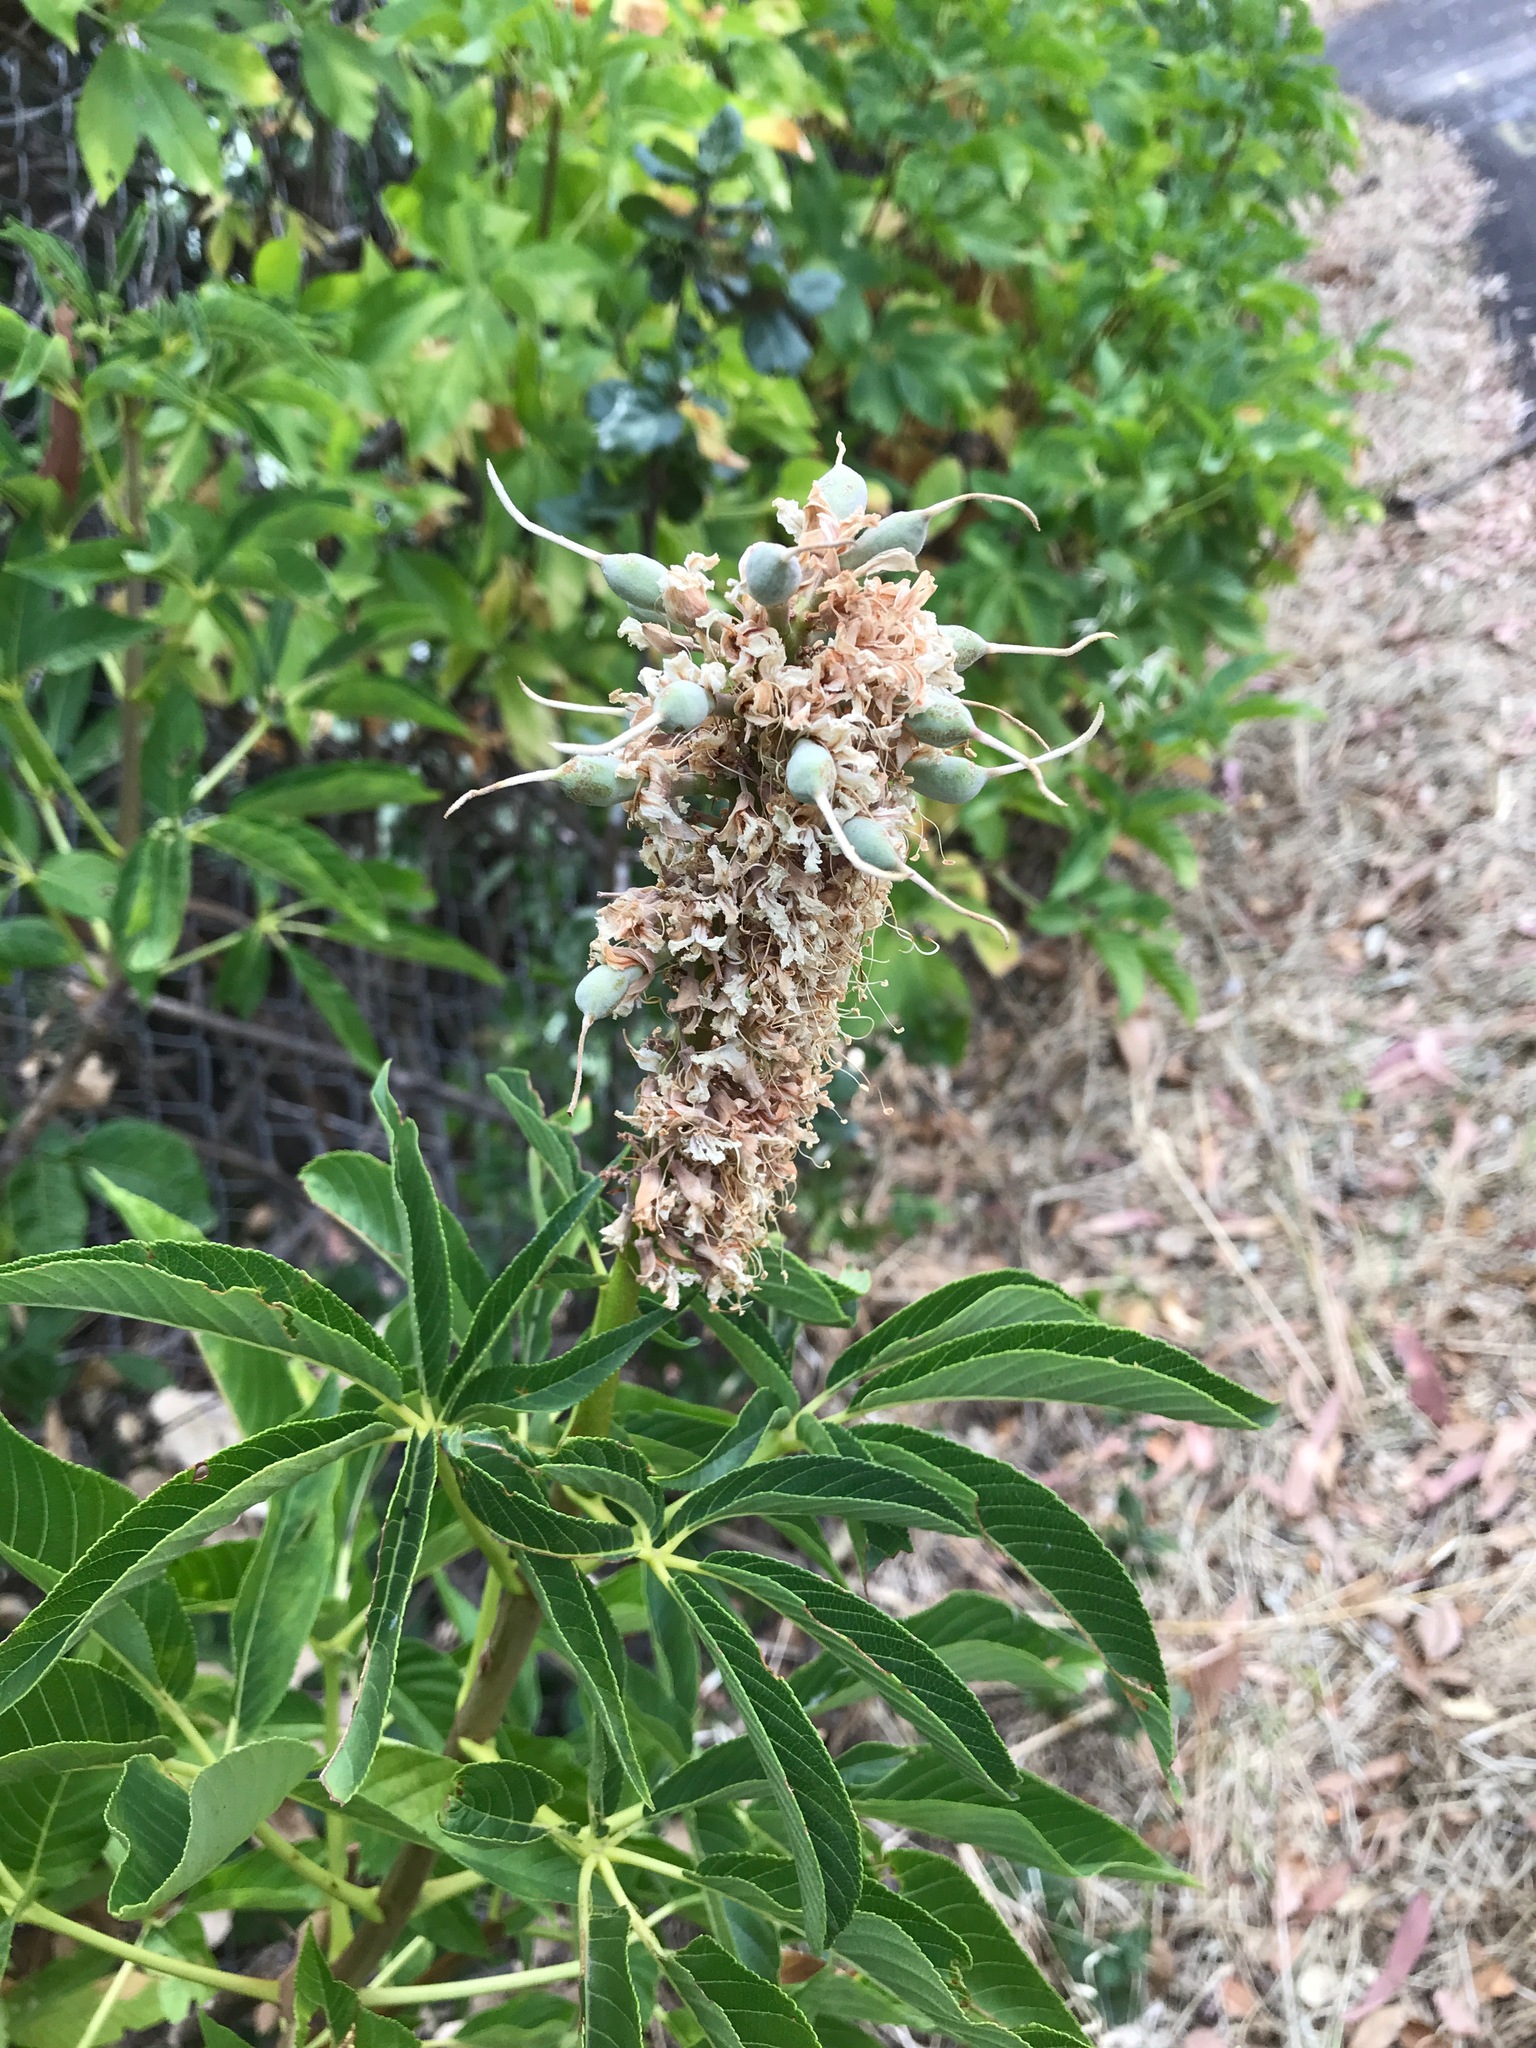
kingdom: Plantae
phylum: Tracheophyta
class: Magnoliopsida
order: Sapindales
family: Sapindaceae
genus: Aesculus
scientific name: Aesculus californica
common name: California buckeye
